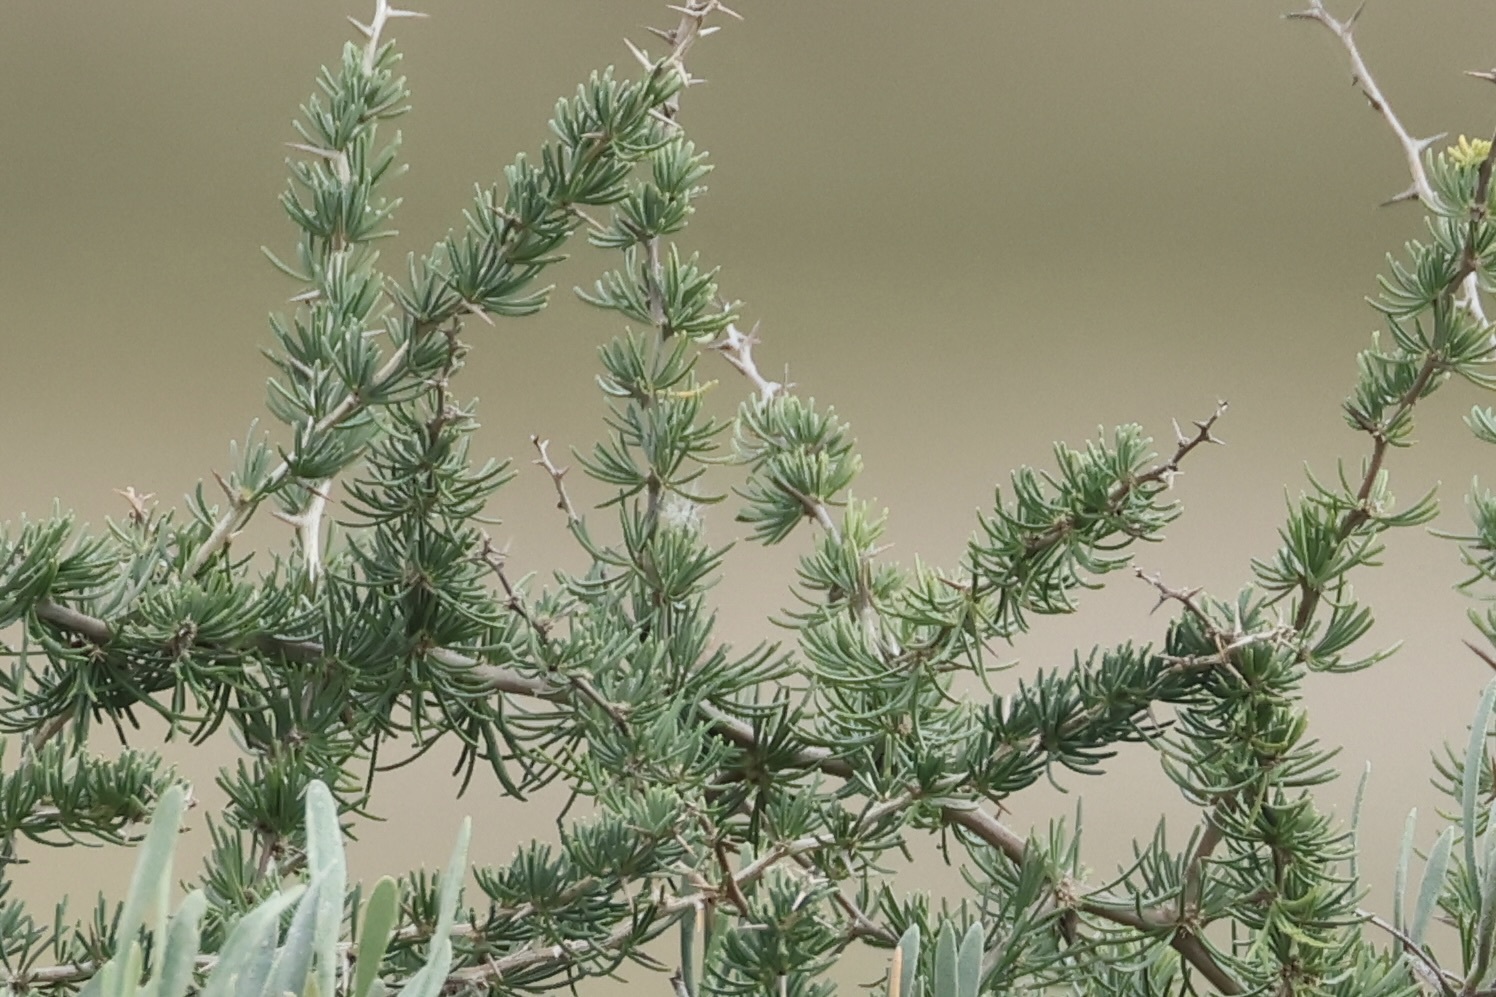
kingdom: Plantae
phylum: Tracheophyta
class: Liliopsida
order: Asparagales
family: Asparagaceae
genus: Asparagus
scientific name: Asparagus albus
